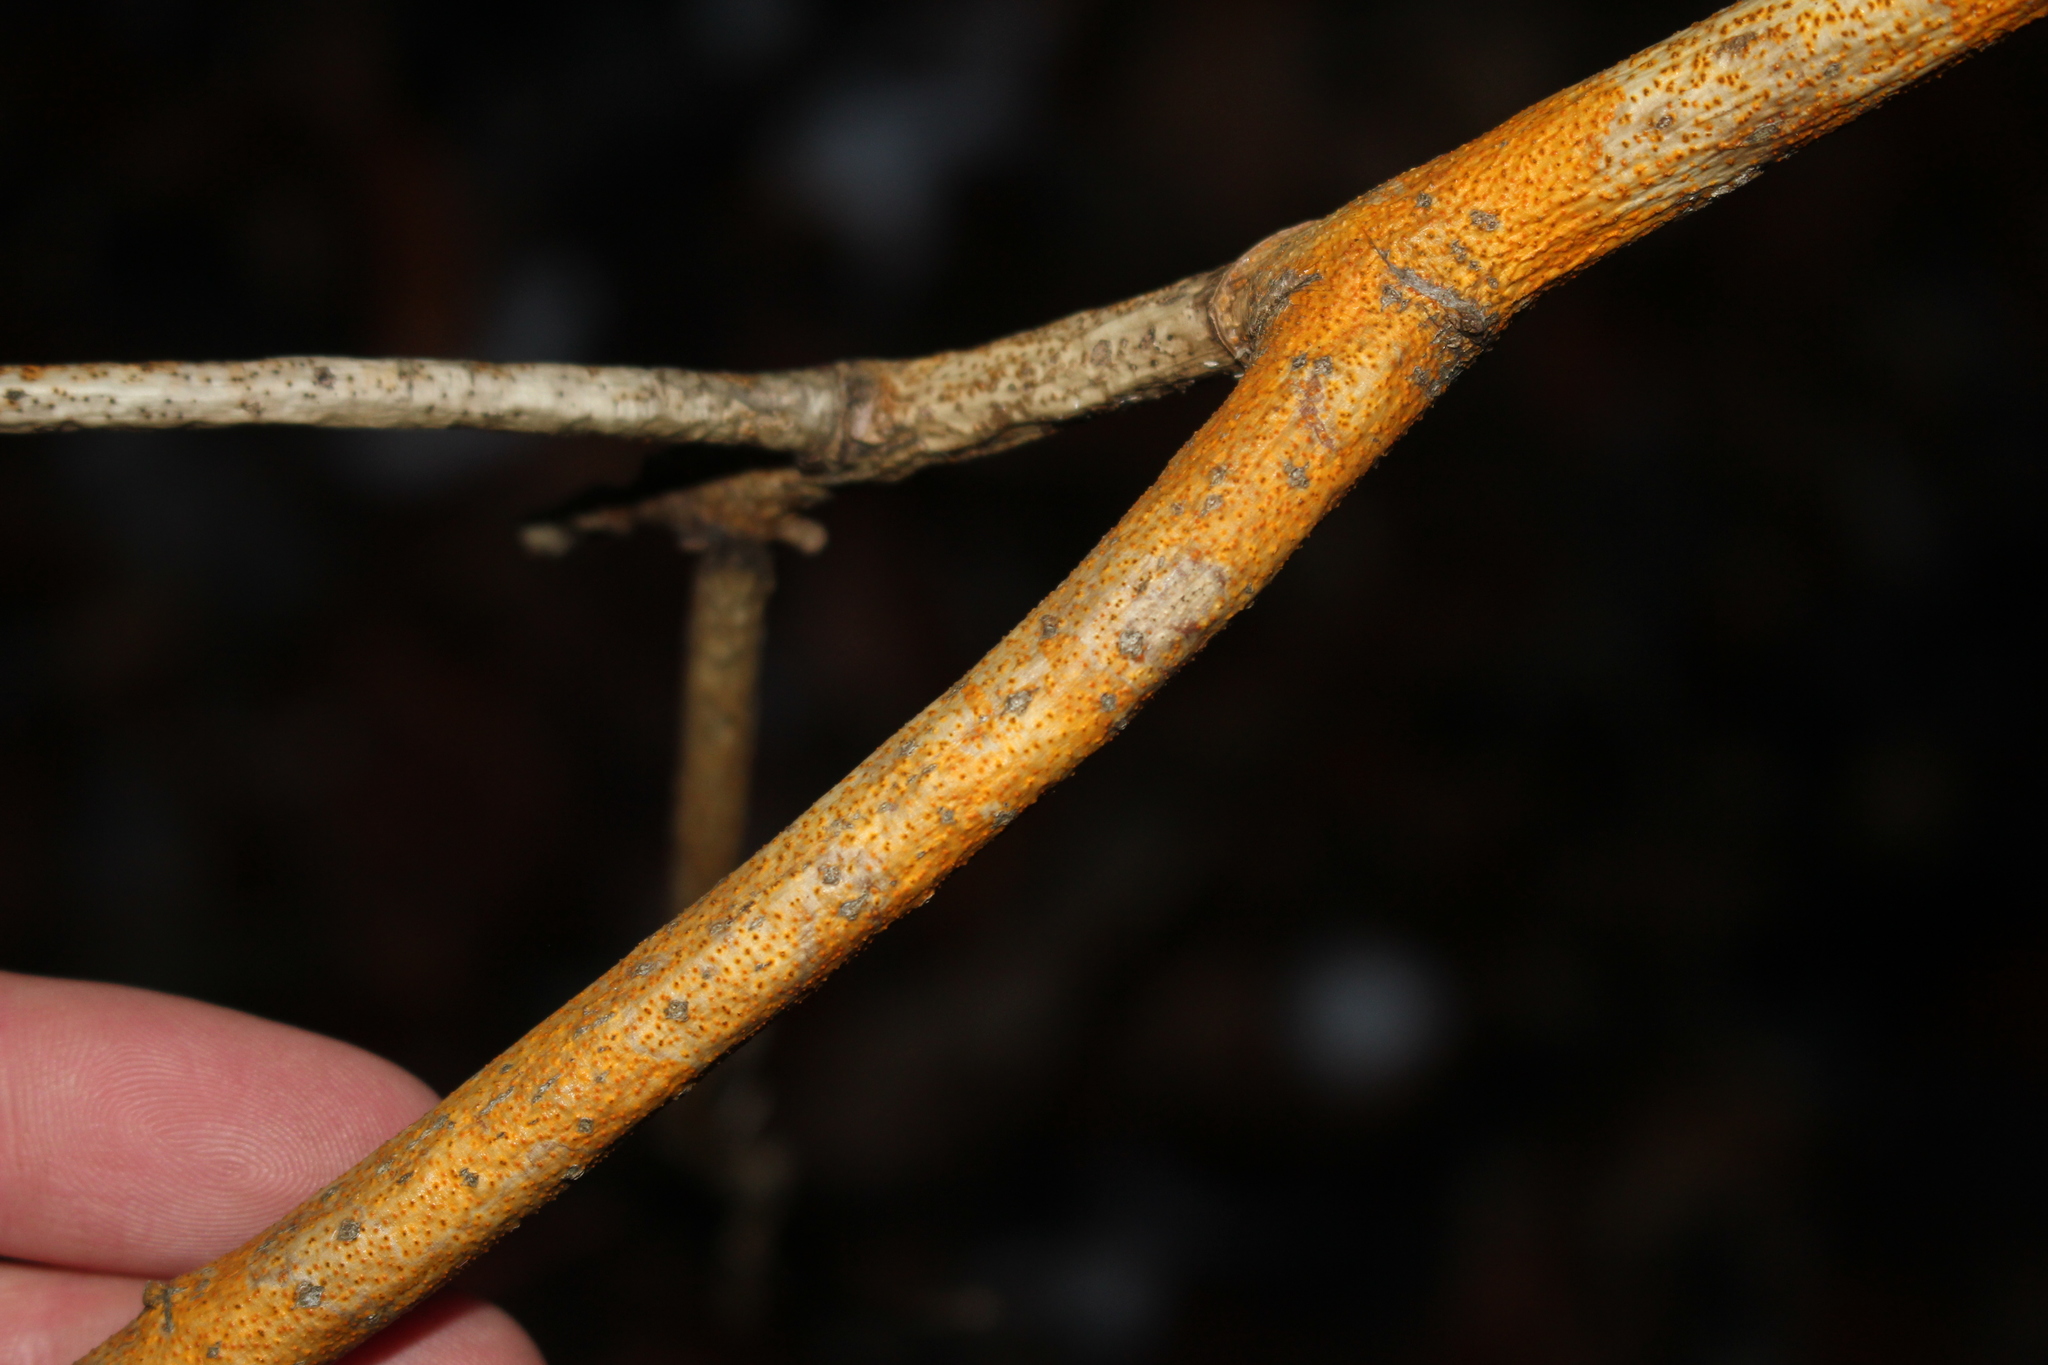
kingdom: Fungi
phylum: Ascomycota
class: Sordariomycetes
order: Diaporthales
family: Cryphonectriaceae
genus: Aurantioporthe
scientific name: Aurantioporthe corni
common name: Dogwood golden canker
